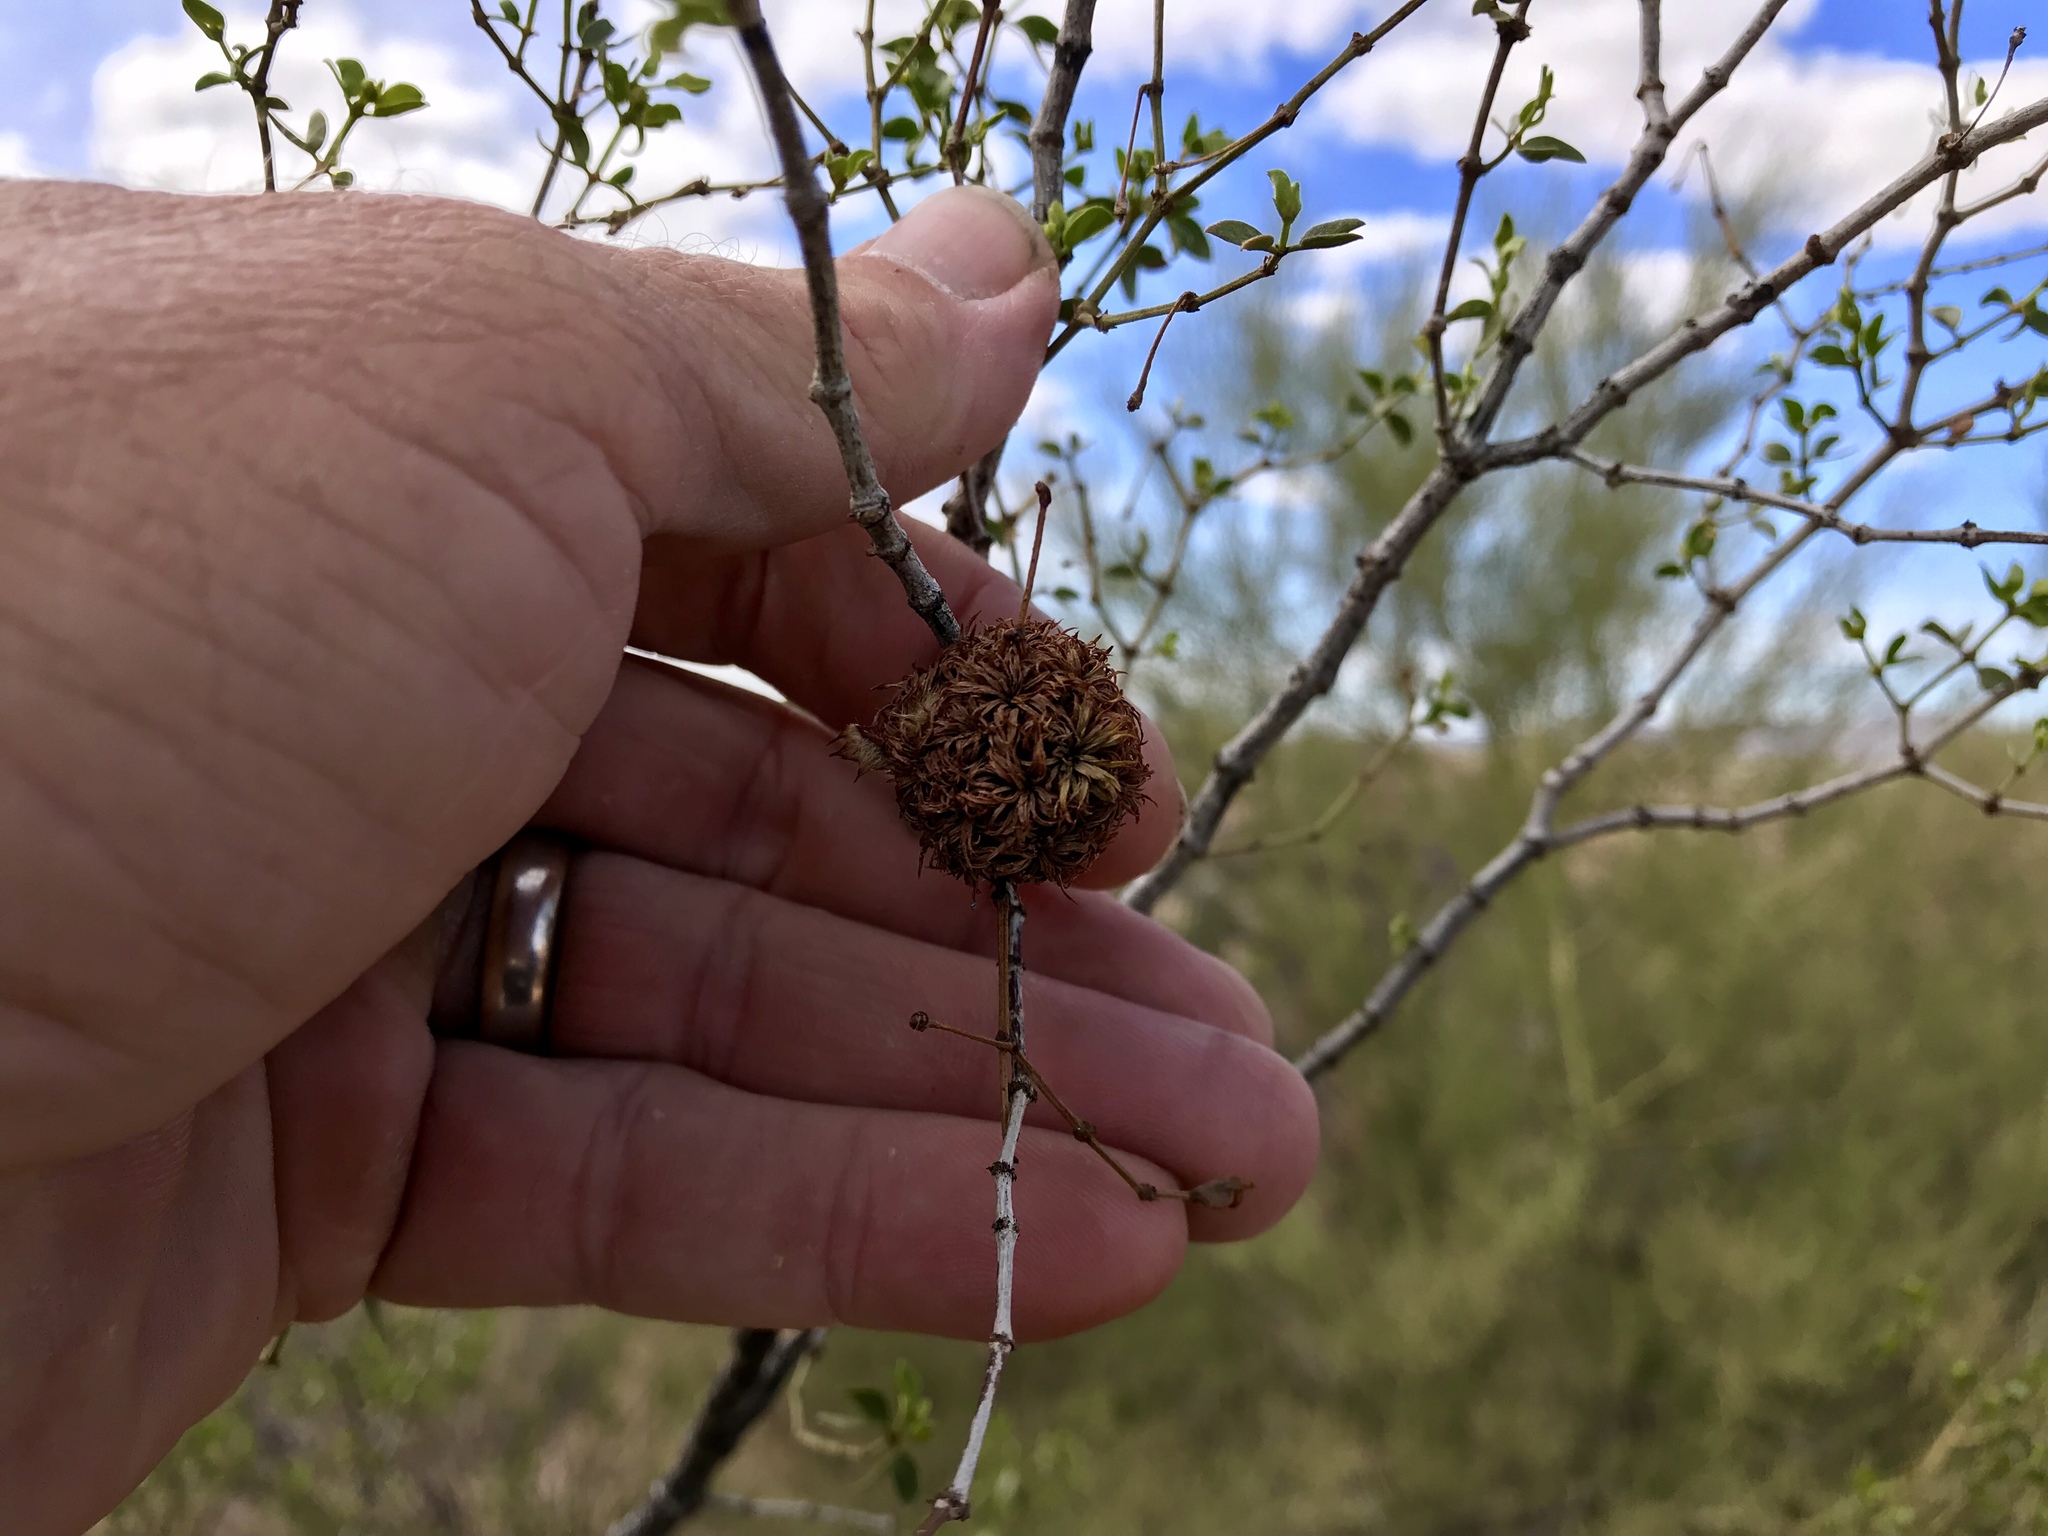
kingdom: Animalia
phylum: Arthropoda
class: Insecta
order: Diptera
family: Cecidomyiidae
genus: Asphondylia
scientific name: Asphondylia auripila
